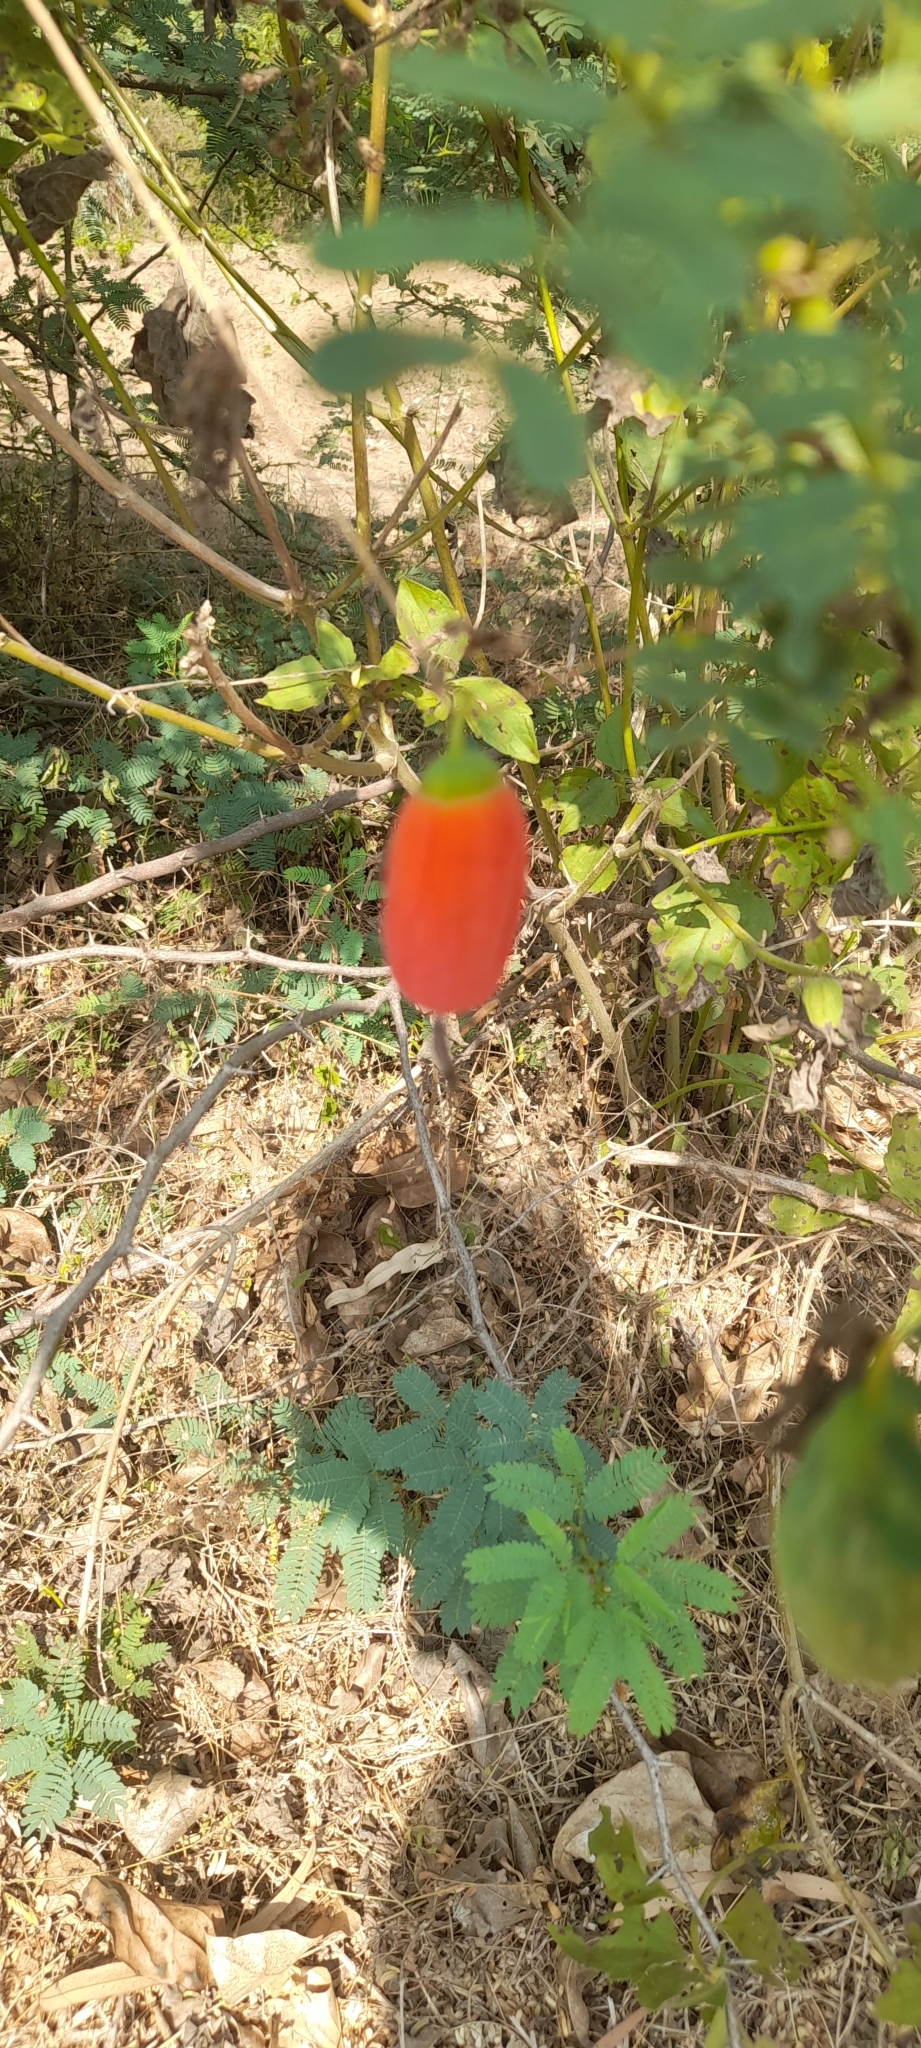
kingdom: Plantae
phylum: Tracheophyta
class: Magnoliopsida
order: Cucurbitales
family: Cucurbitaceae
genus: Coccinia
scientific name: Coccinia grandis
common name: Ivy gourd
